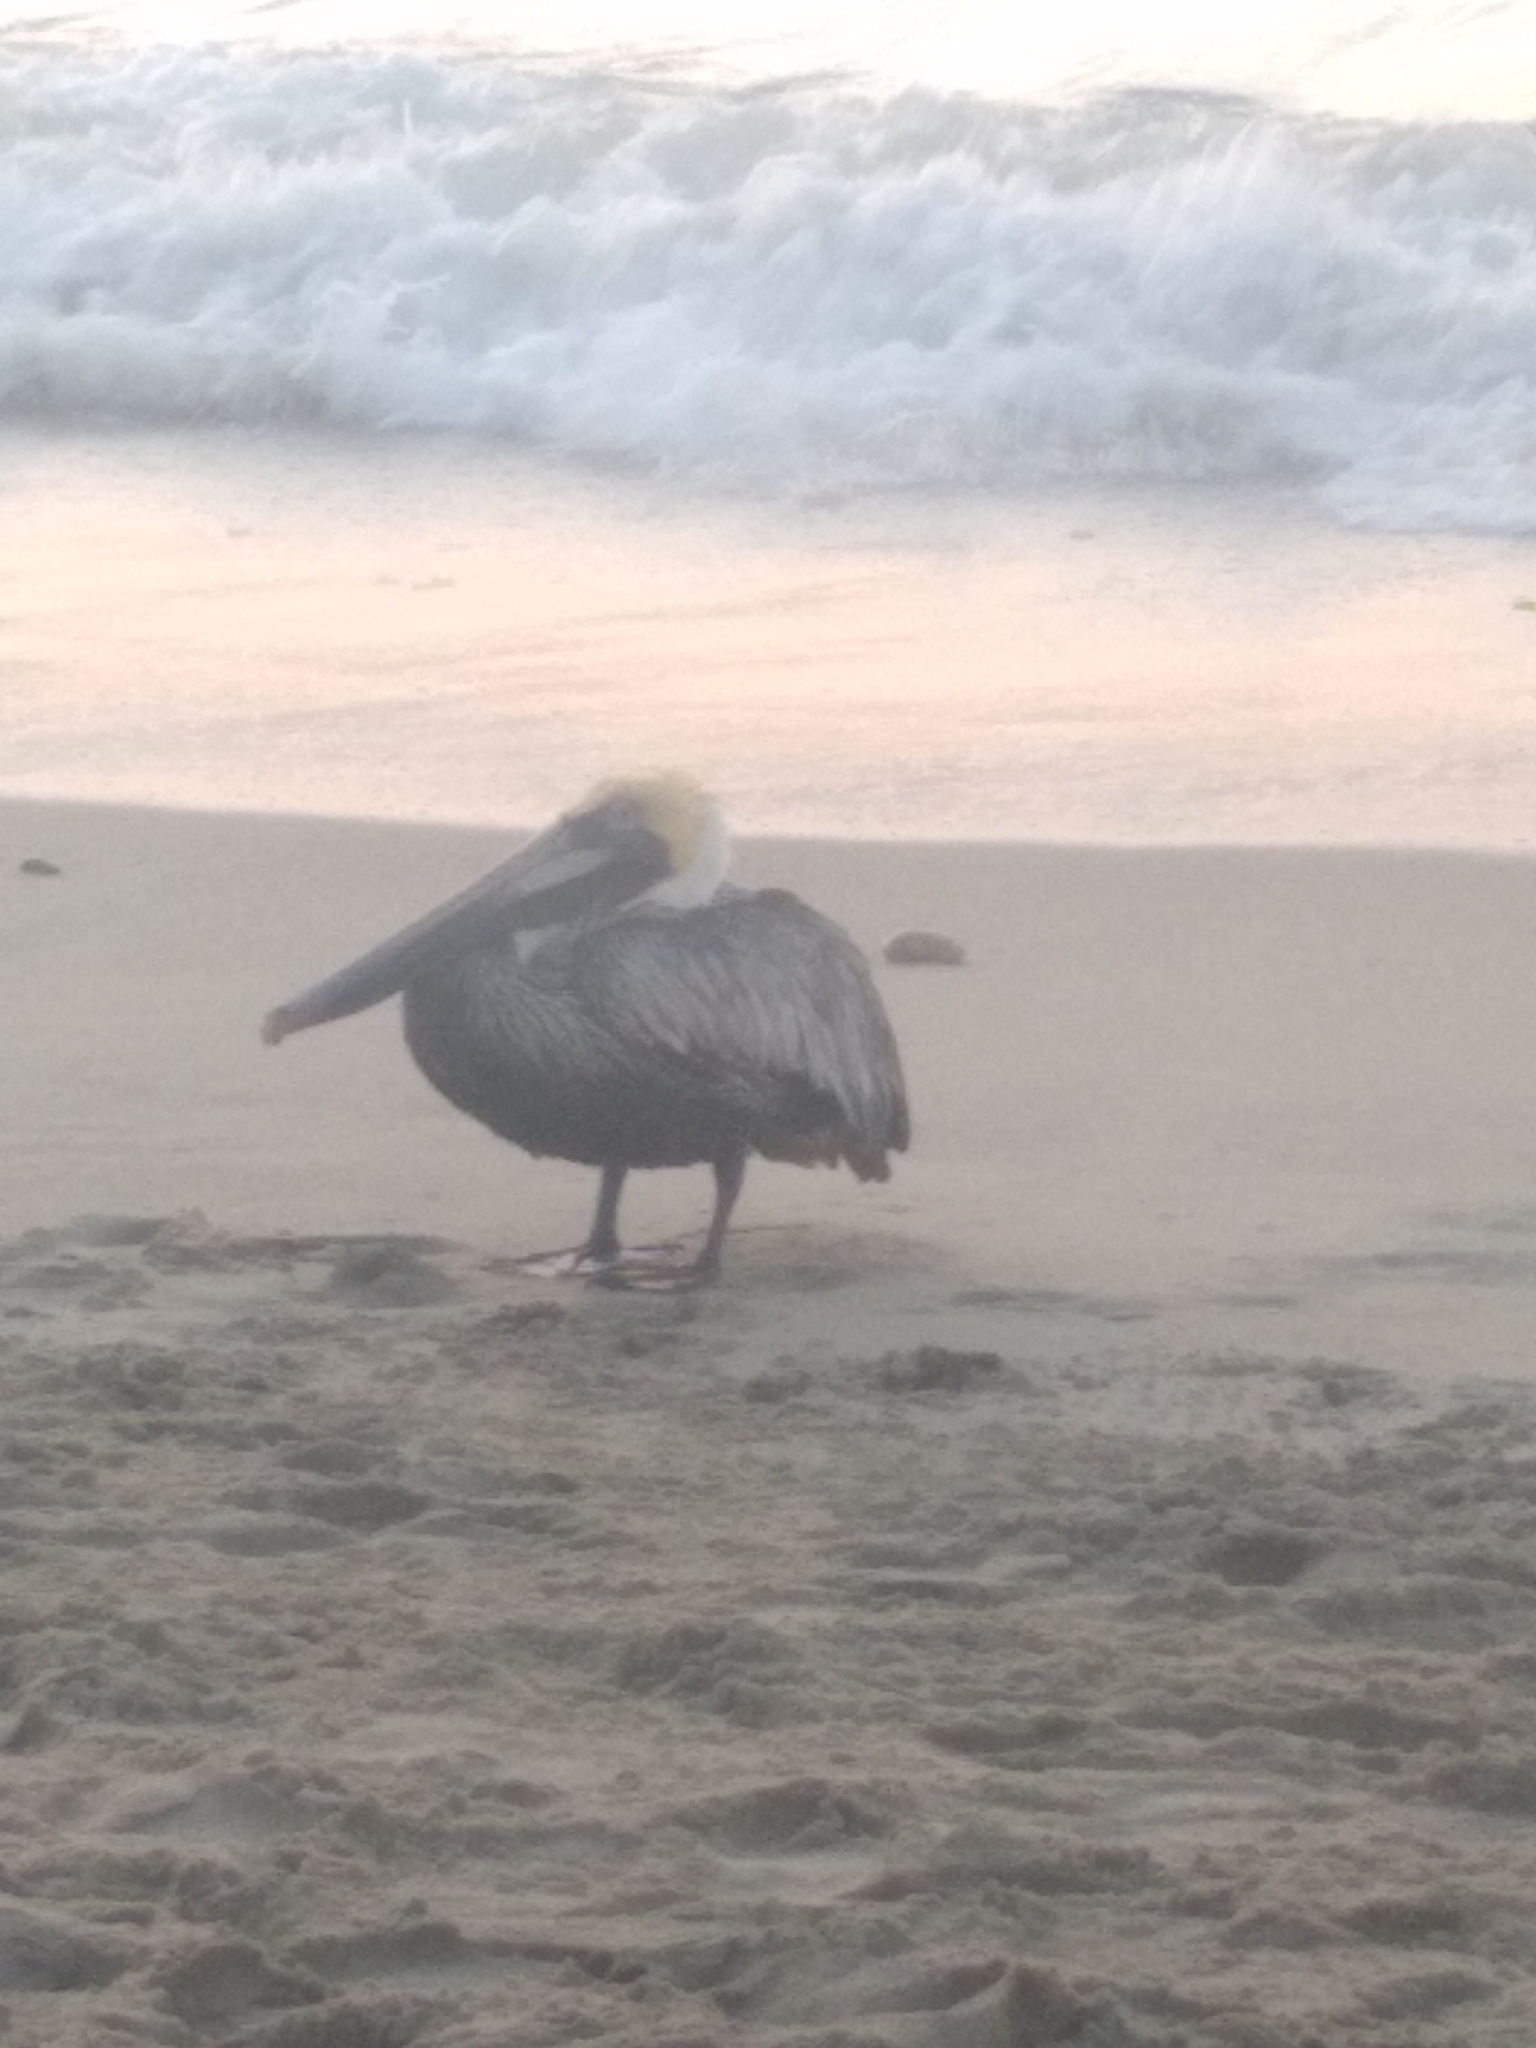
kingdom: Animalia
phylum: Chordata
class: Aves
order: Pelecaniformes
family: Pelecanidae
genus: Pelecanus
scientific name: Pelecanus occidentalis
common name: Brown pelican
